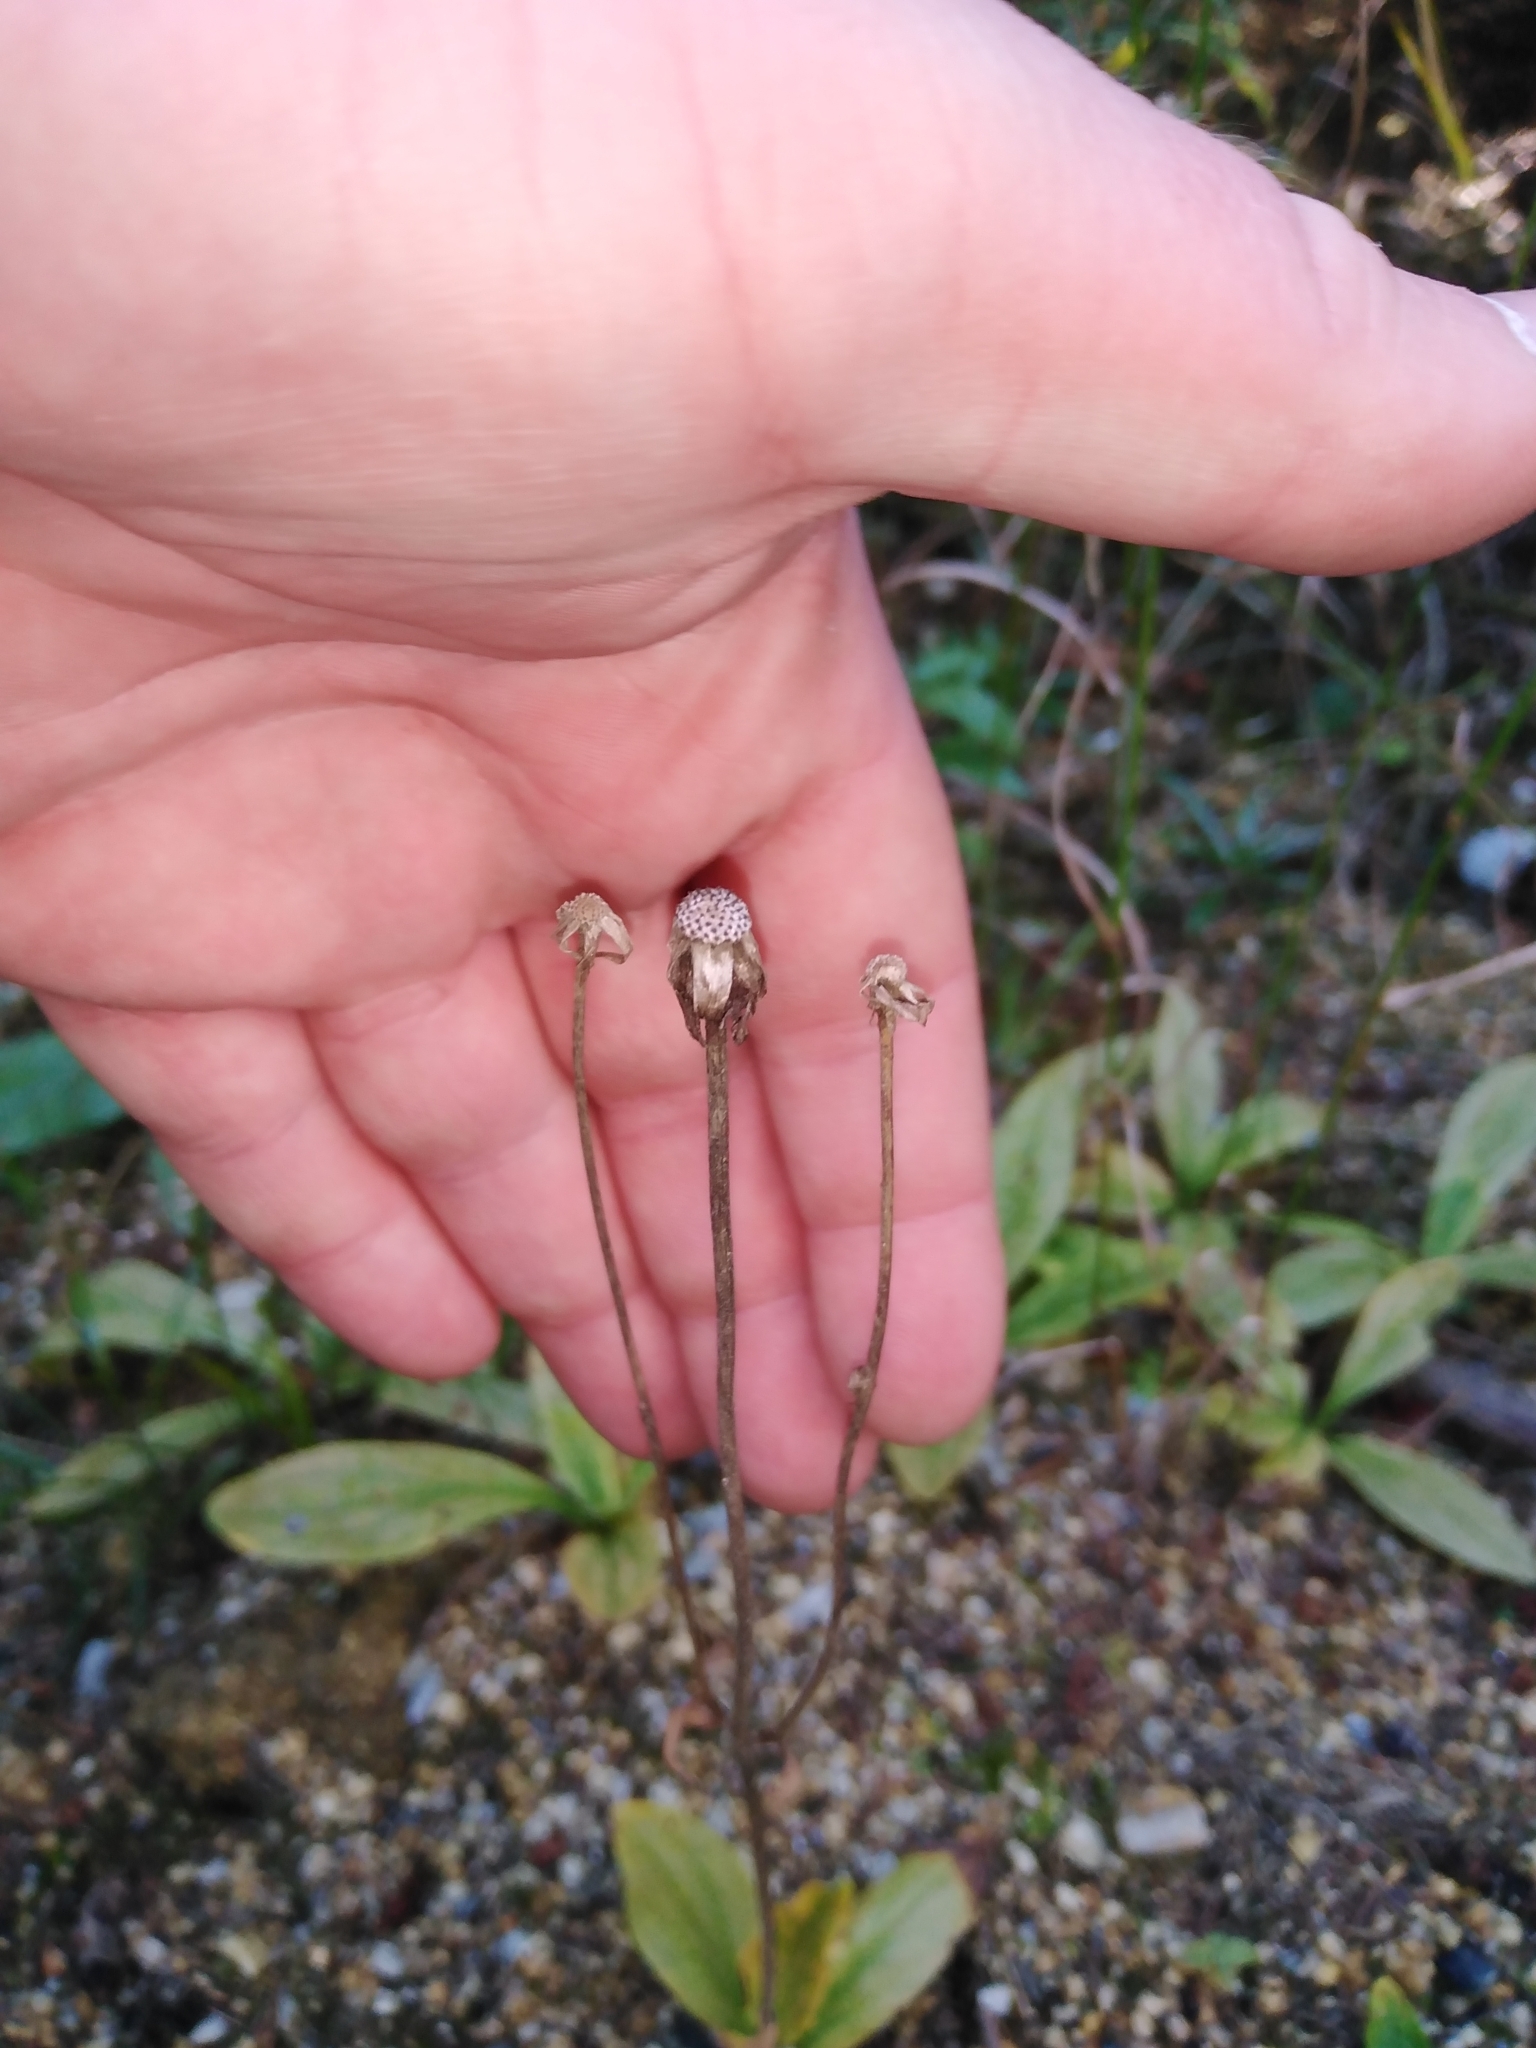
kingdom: Plantae
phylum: Tracheophyta
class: Magnoliopsida
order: Asterales
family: Asteraceae
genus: Arnica
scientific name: Arnica montana
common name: Leopard's bane
